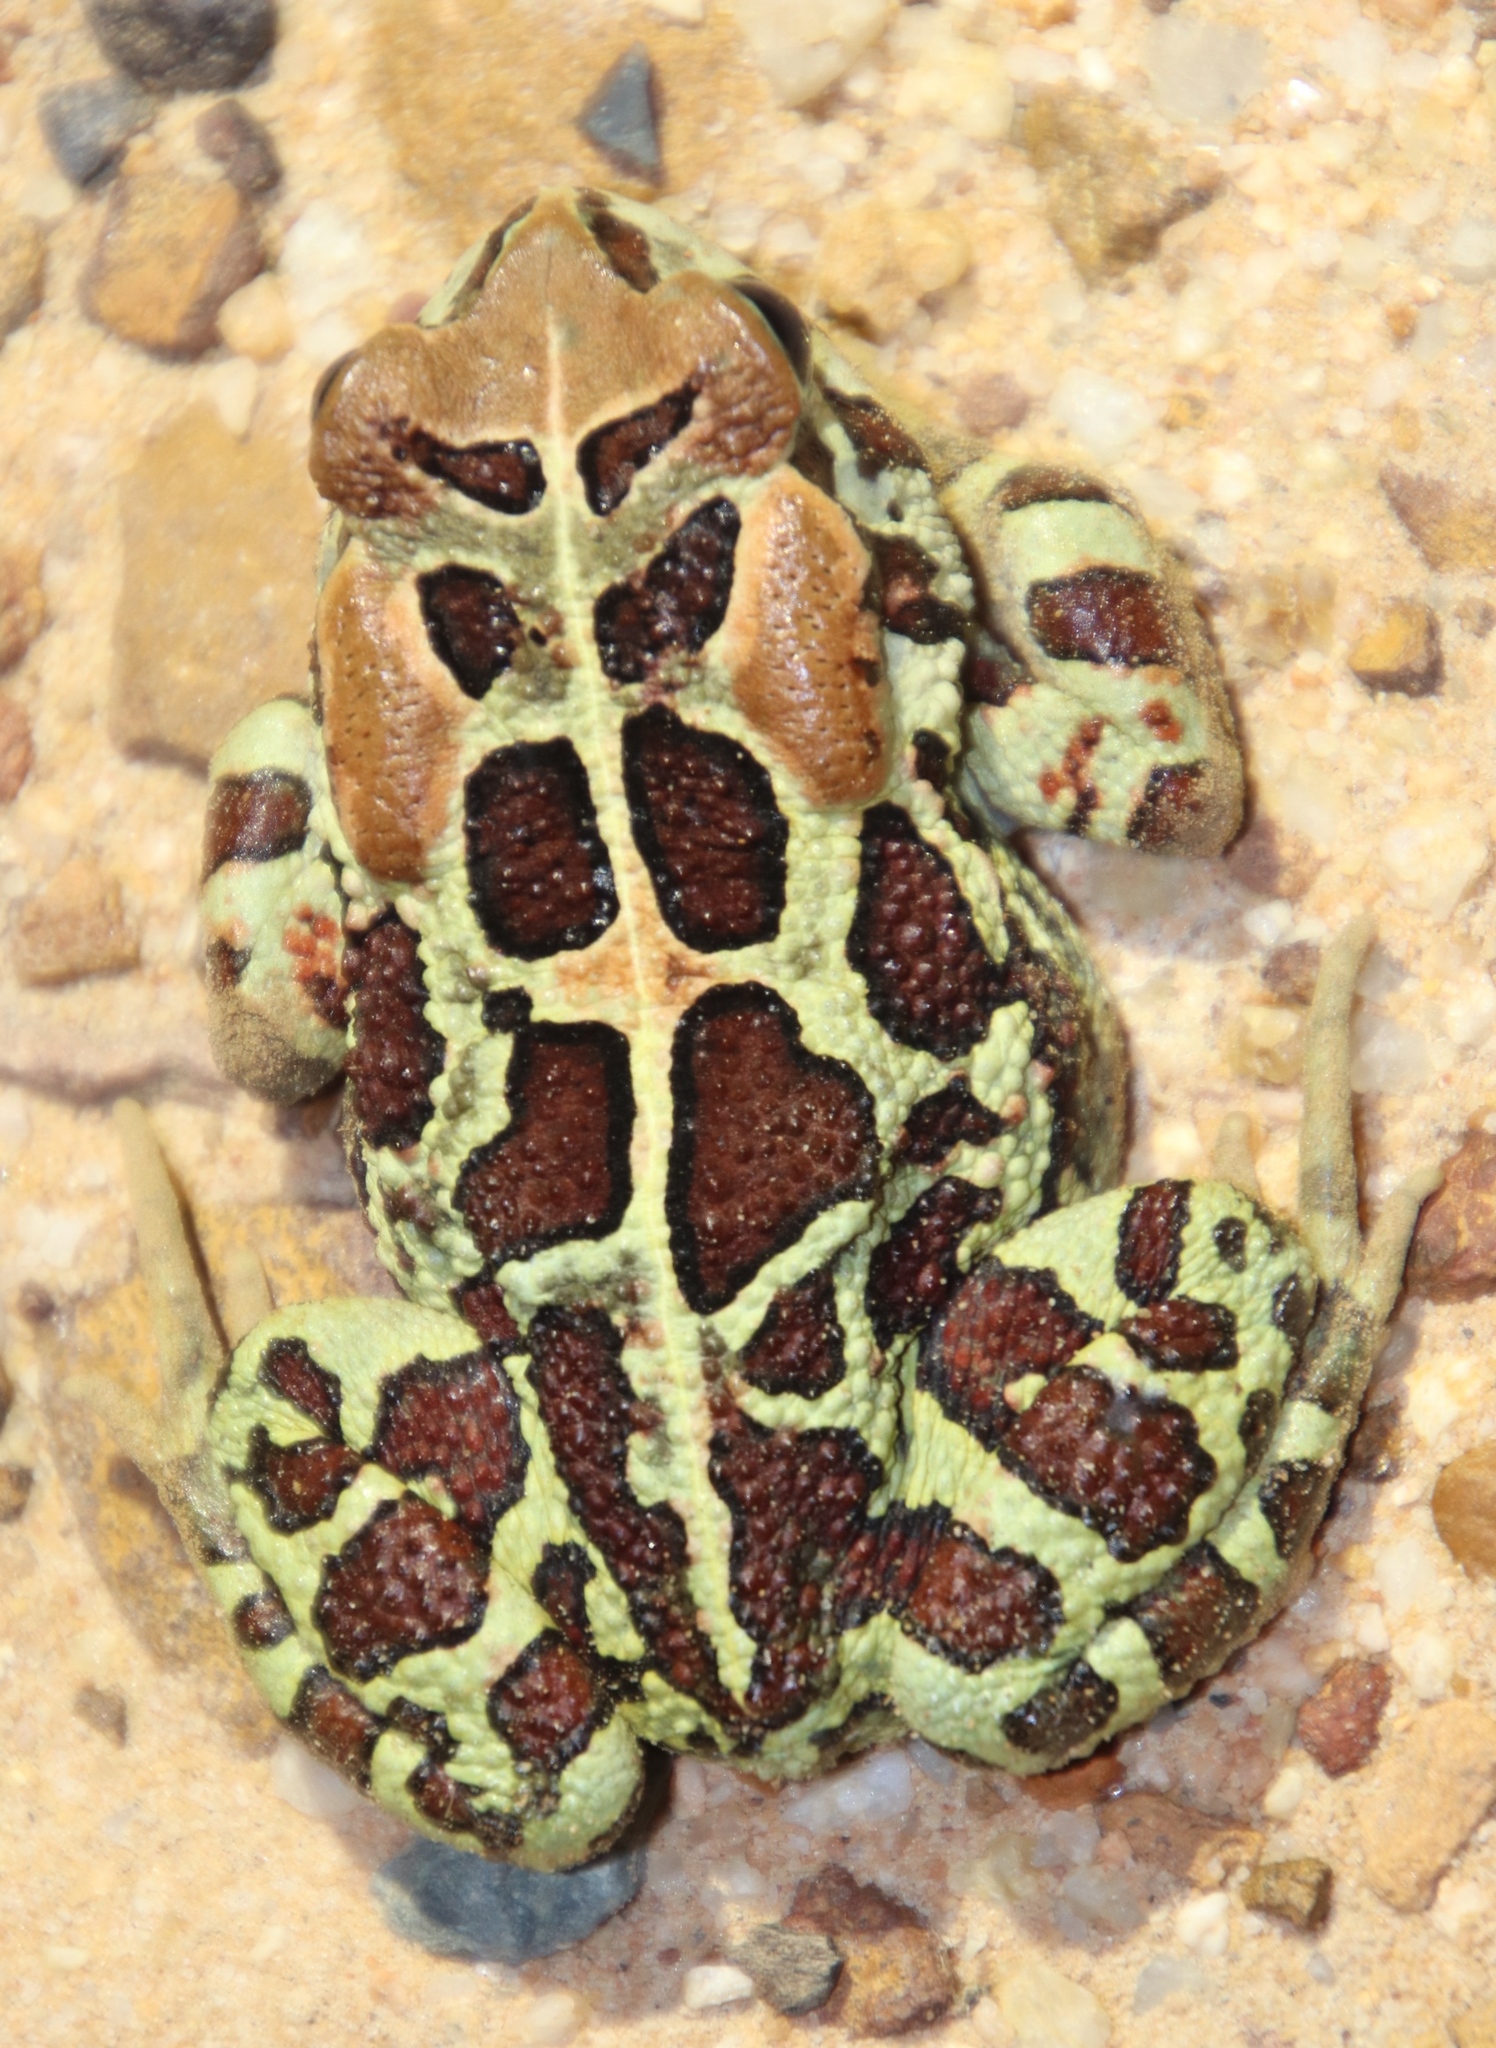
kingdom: Animalia
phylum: Chordata
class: Amphibia
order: Anura
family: Bufonidae
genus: Sclerophrys
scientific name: Sclerophrys pantherina
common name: Panther toad
